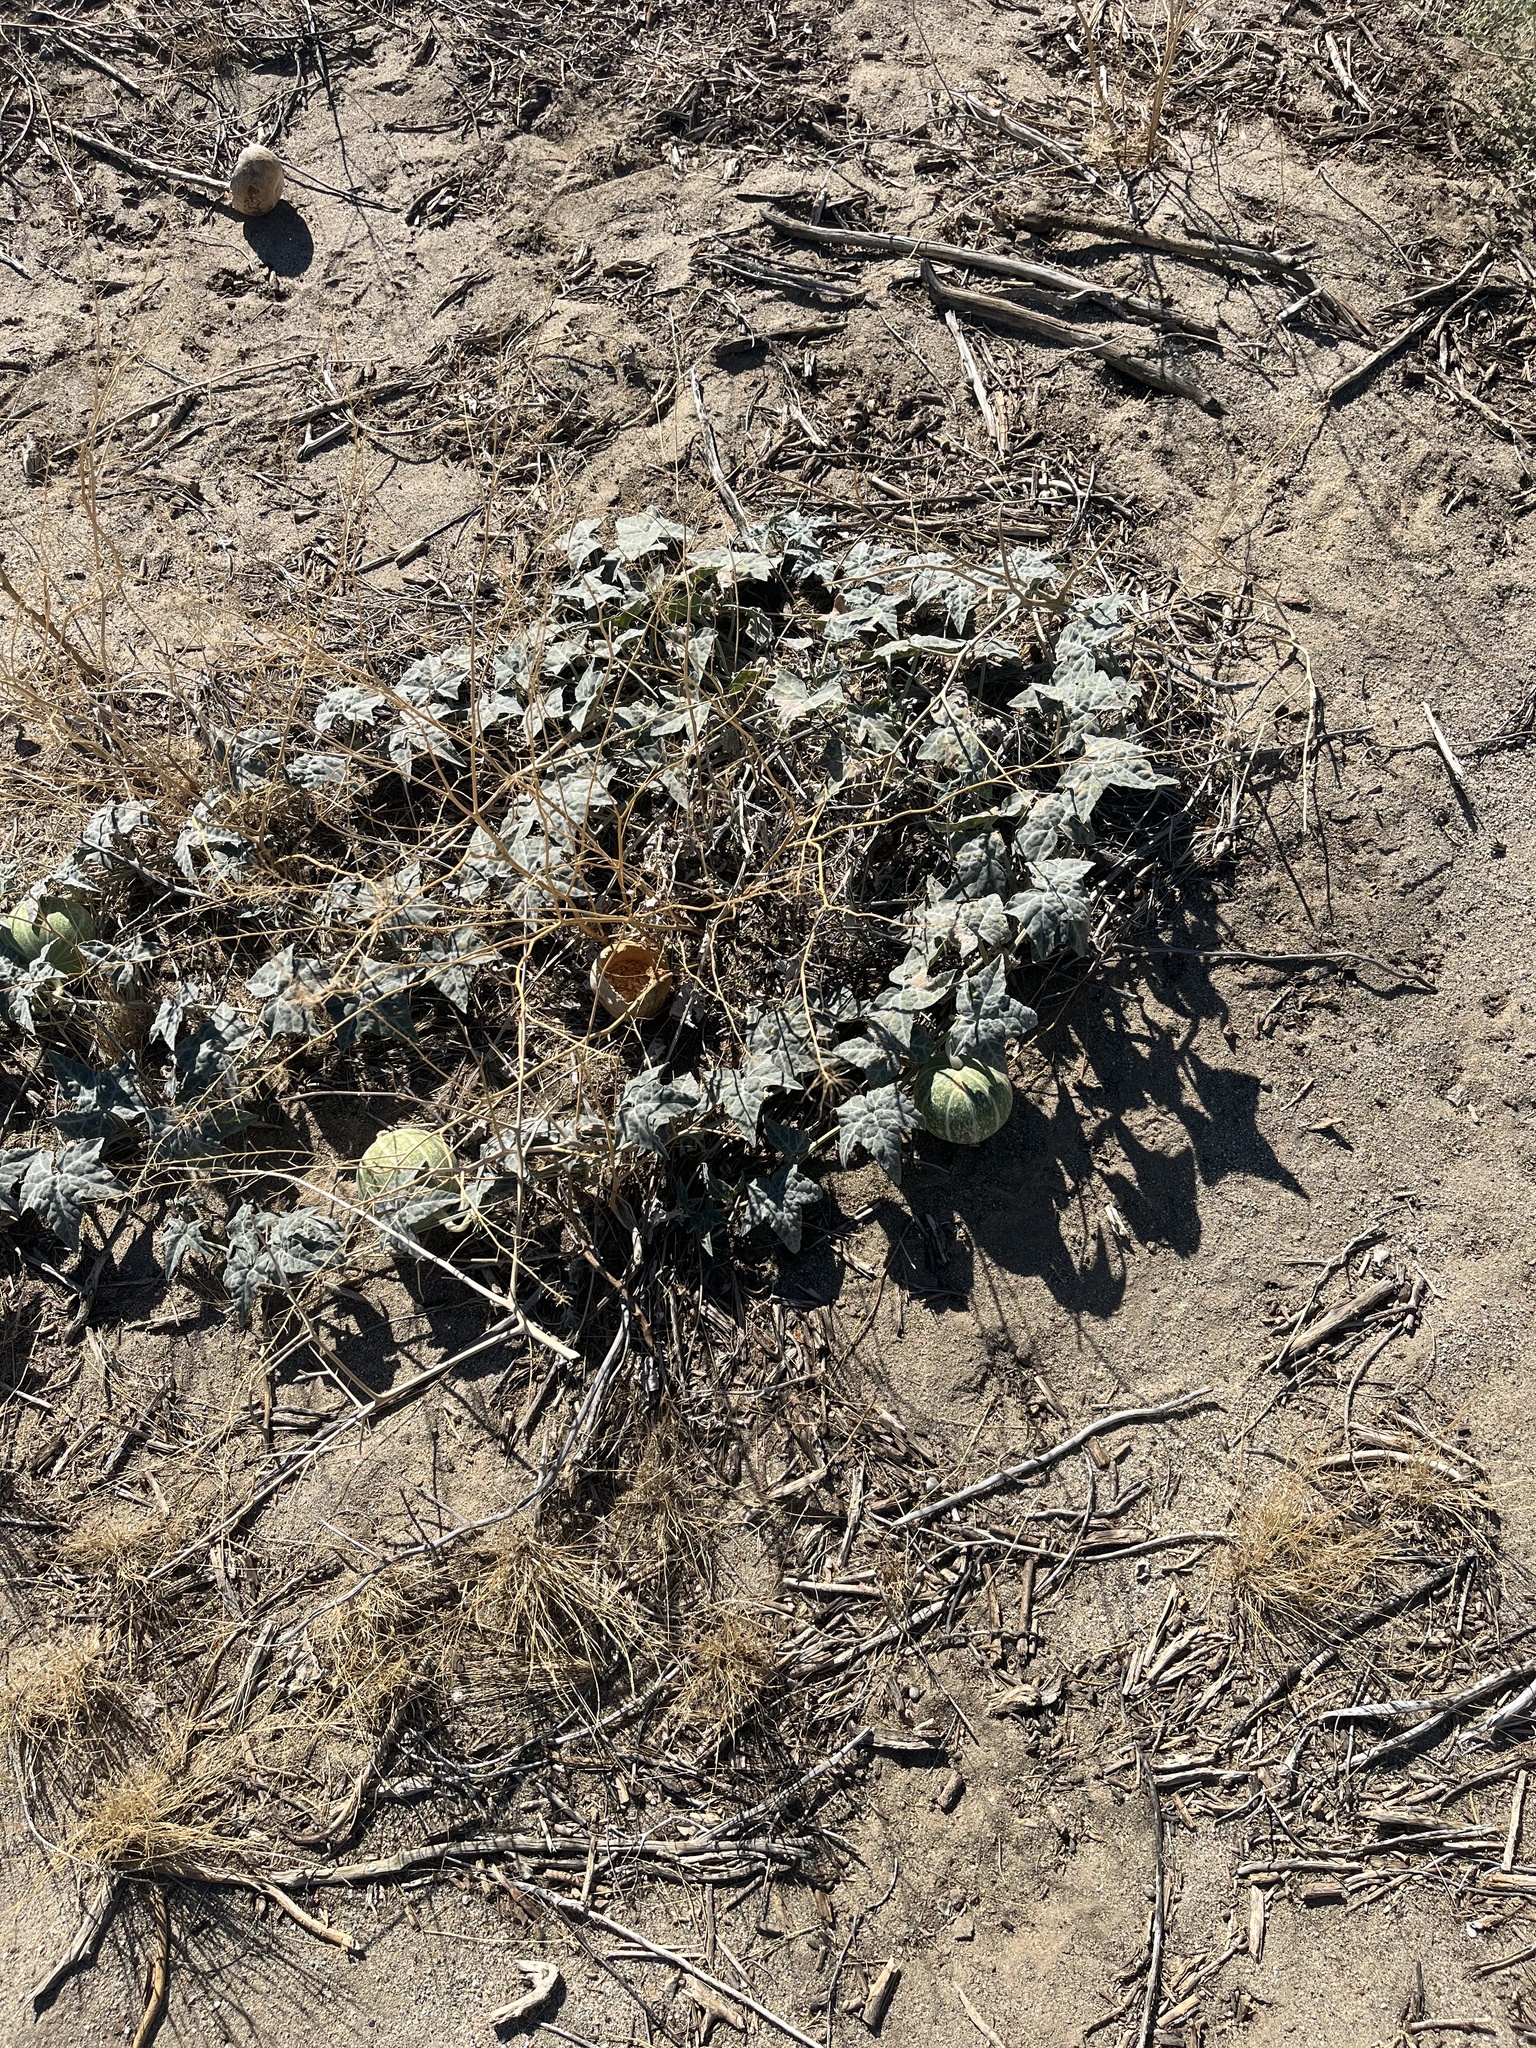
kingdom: Plantae
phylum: Tracheophyta
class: Magnoliopsida
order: Cucurbitales
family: Cucurbitaceae
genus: Cucurbita
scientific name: Cucurbita palmata
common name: Coyote-melon
